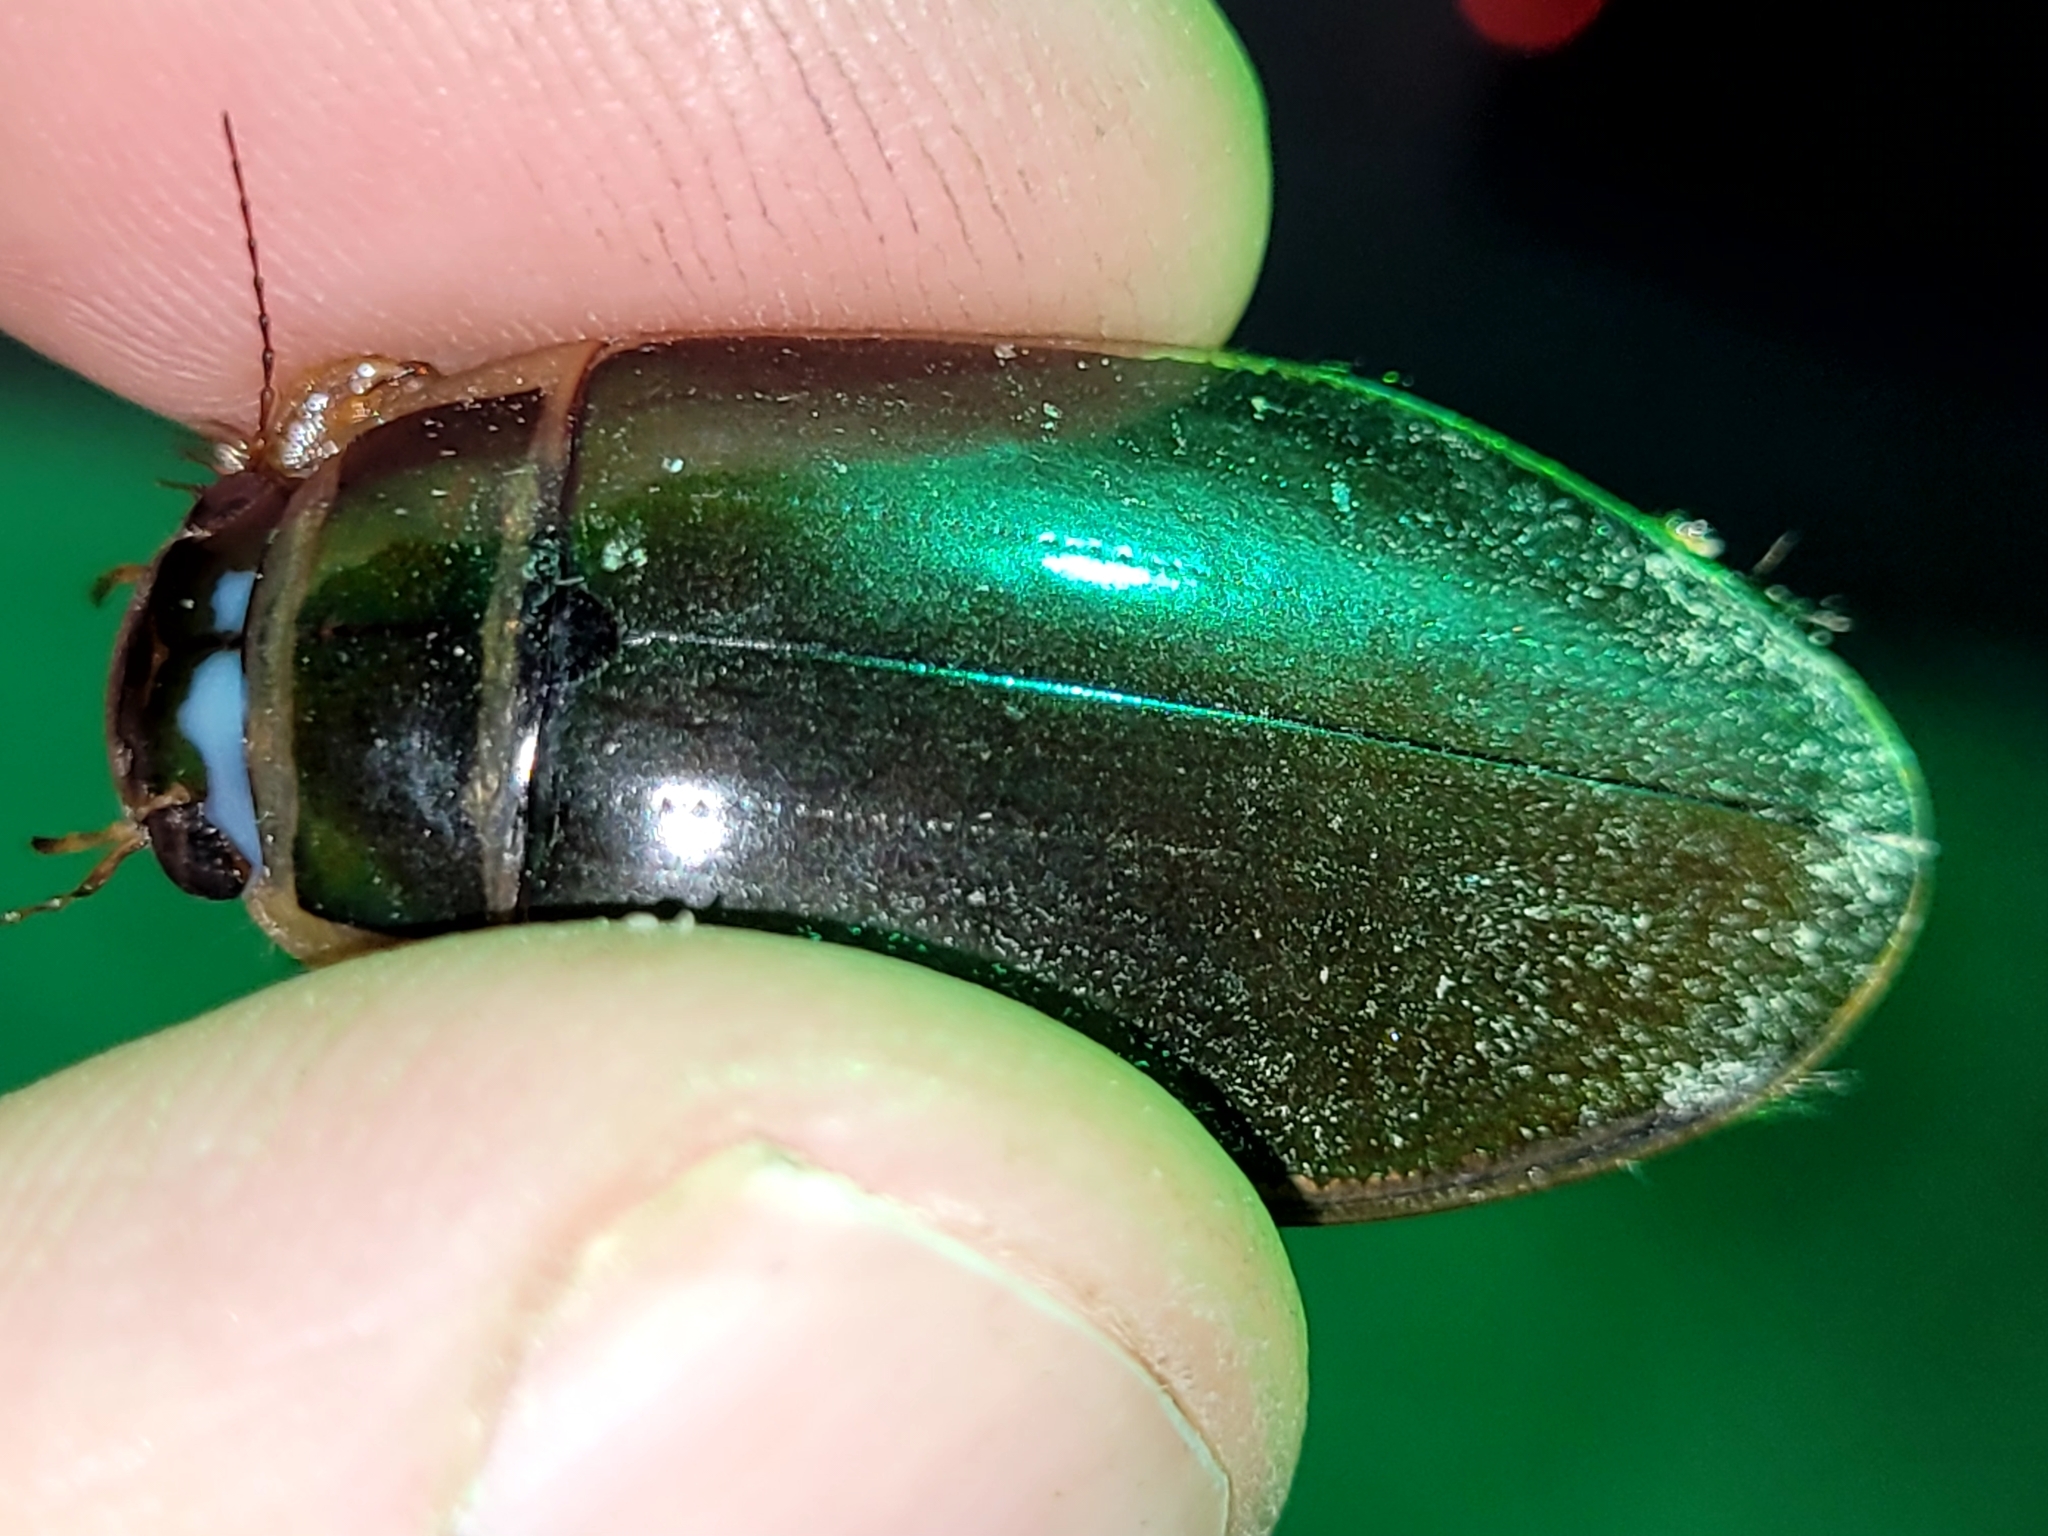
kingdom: Animalia
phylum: Arthropoda
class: Insecta
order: Coleoptera
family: Dytiscidae
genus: Dytiscus
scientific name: Dytiscus
